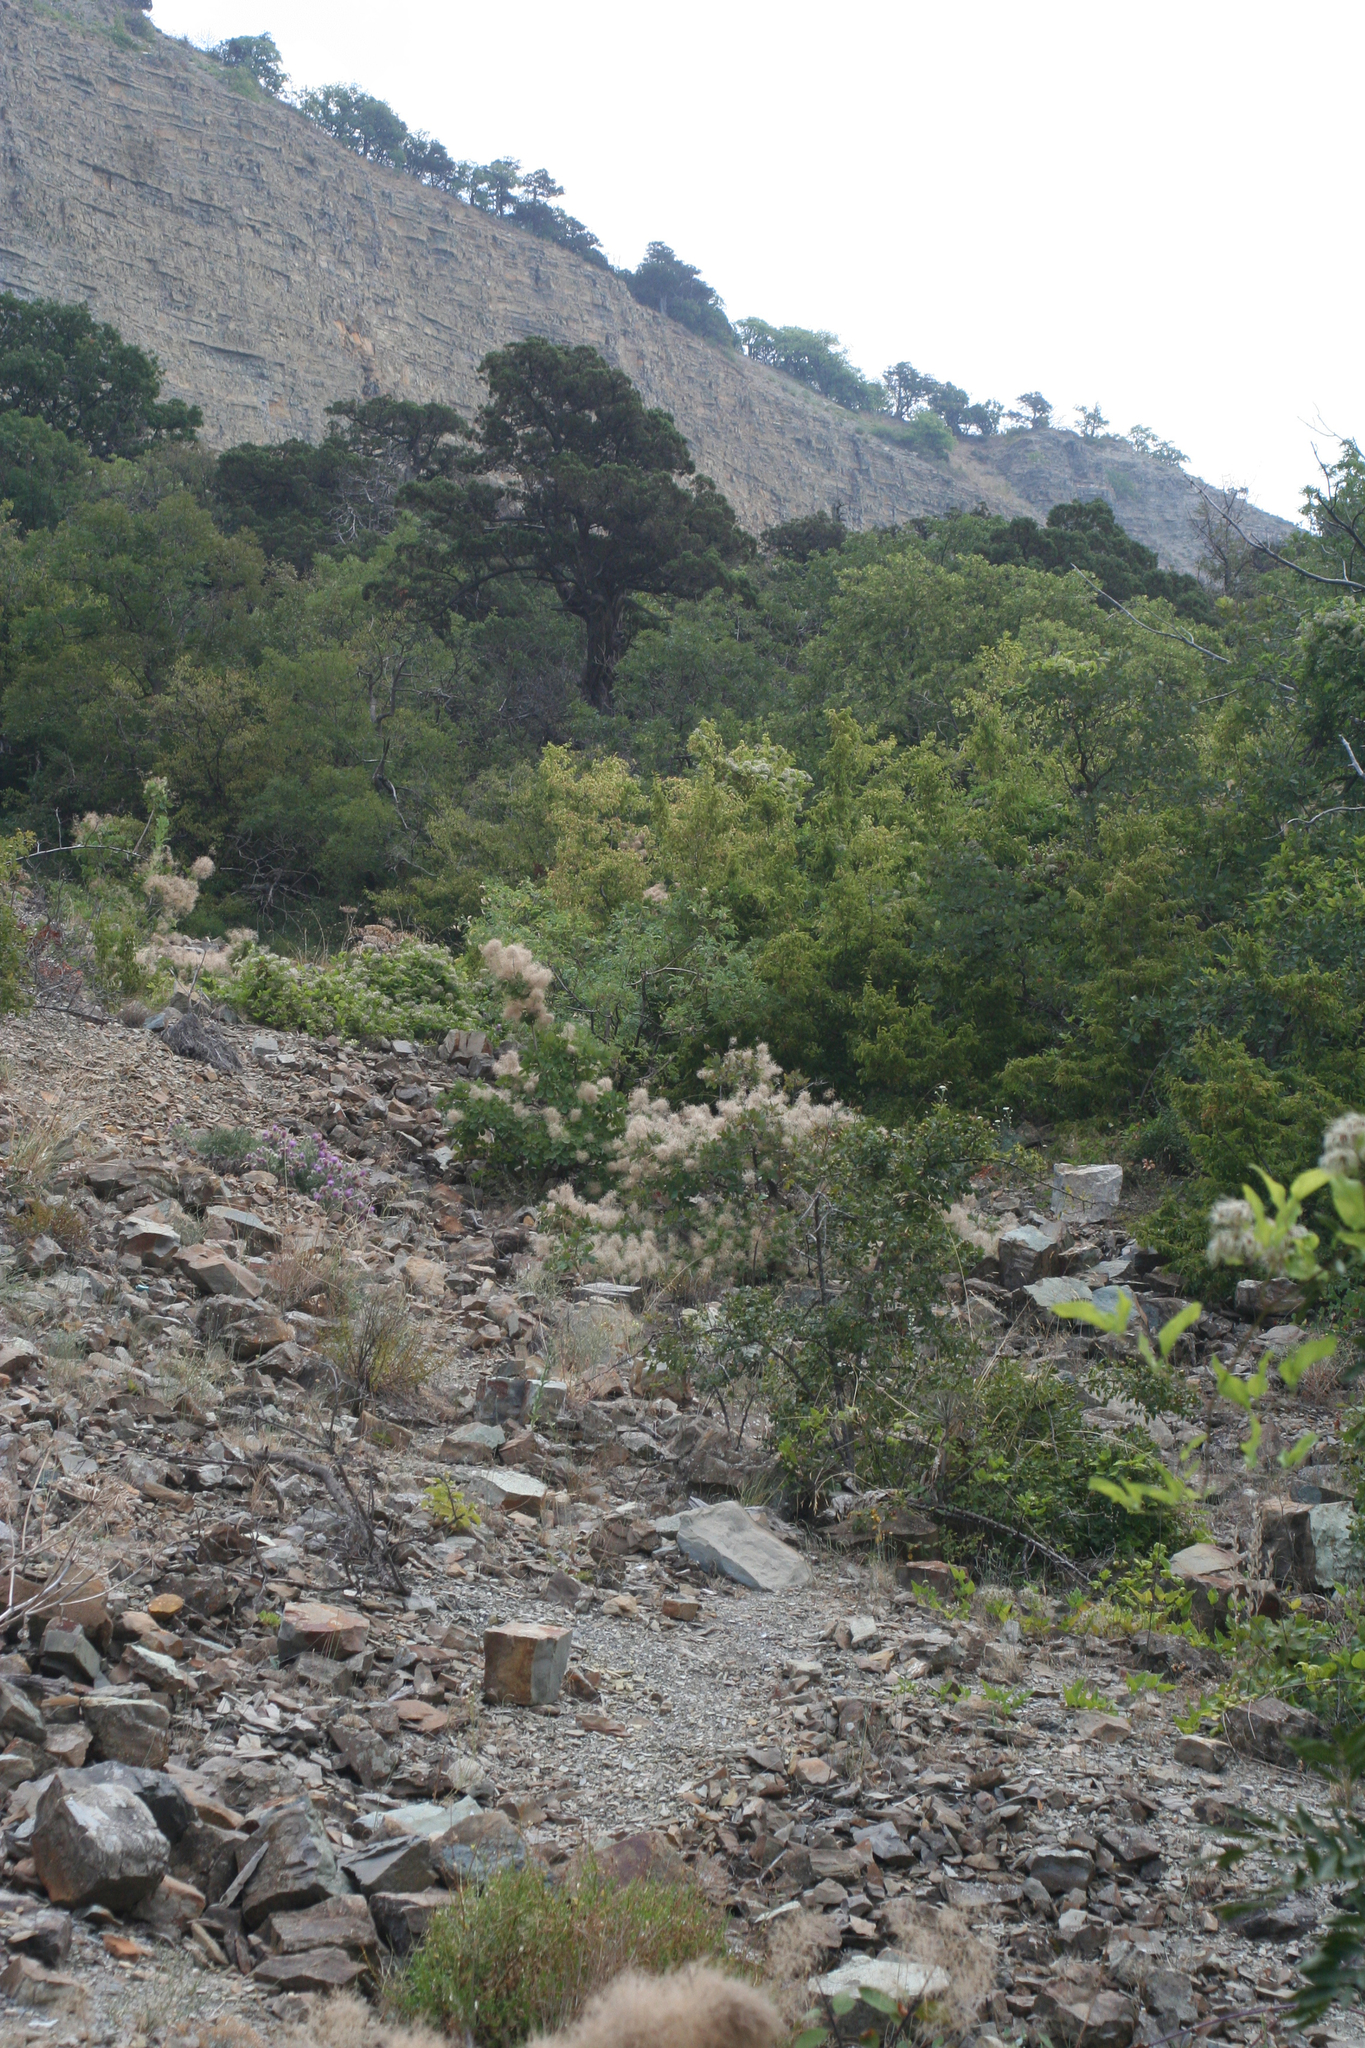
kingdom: Plantae
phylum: Tracheophyta
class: Pinopsida
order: Pinales
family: Cupressaceae
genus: Juniperus
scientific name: Juniperus excelsa
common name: Crimean juniper
